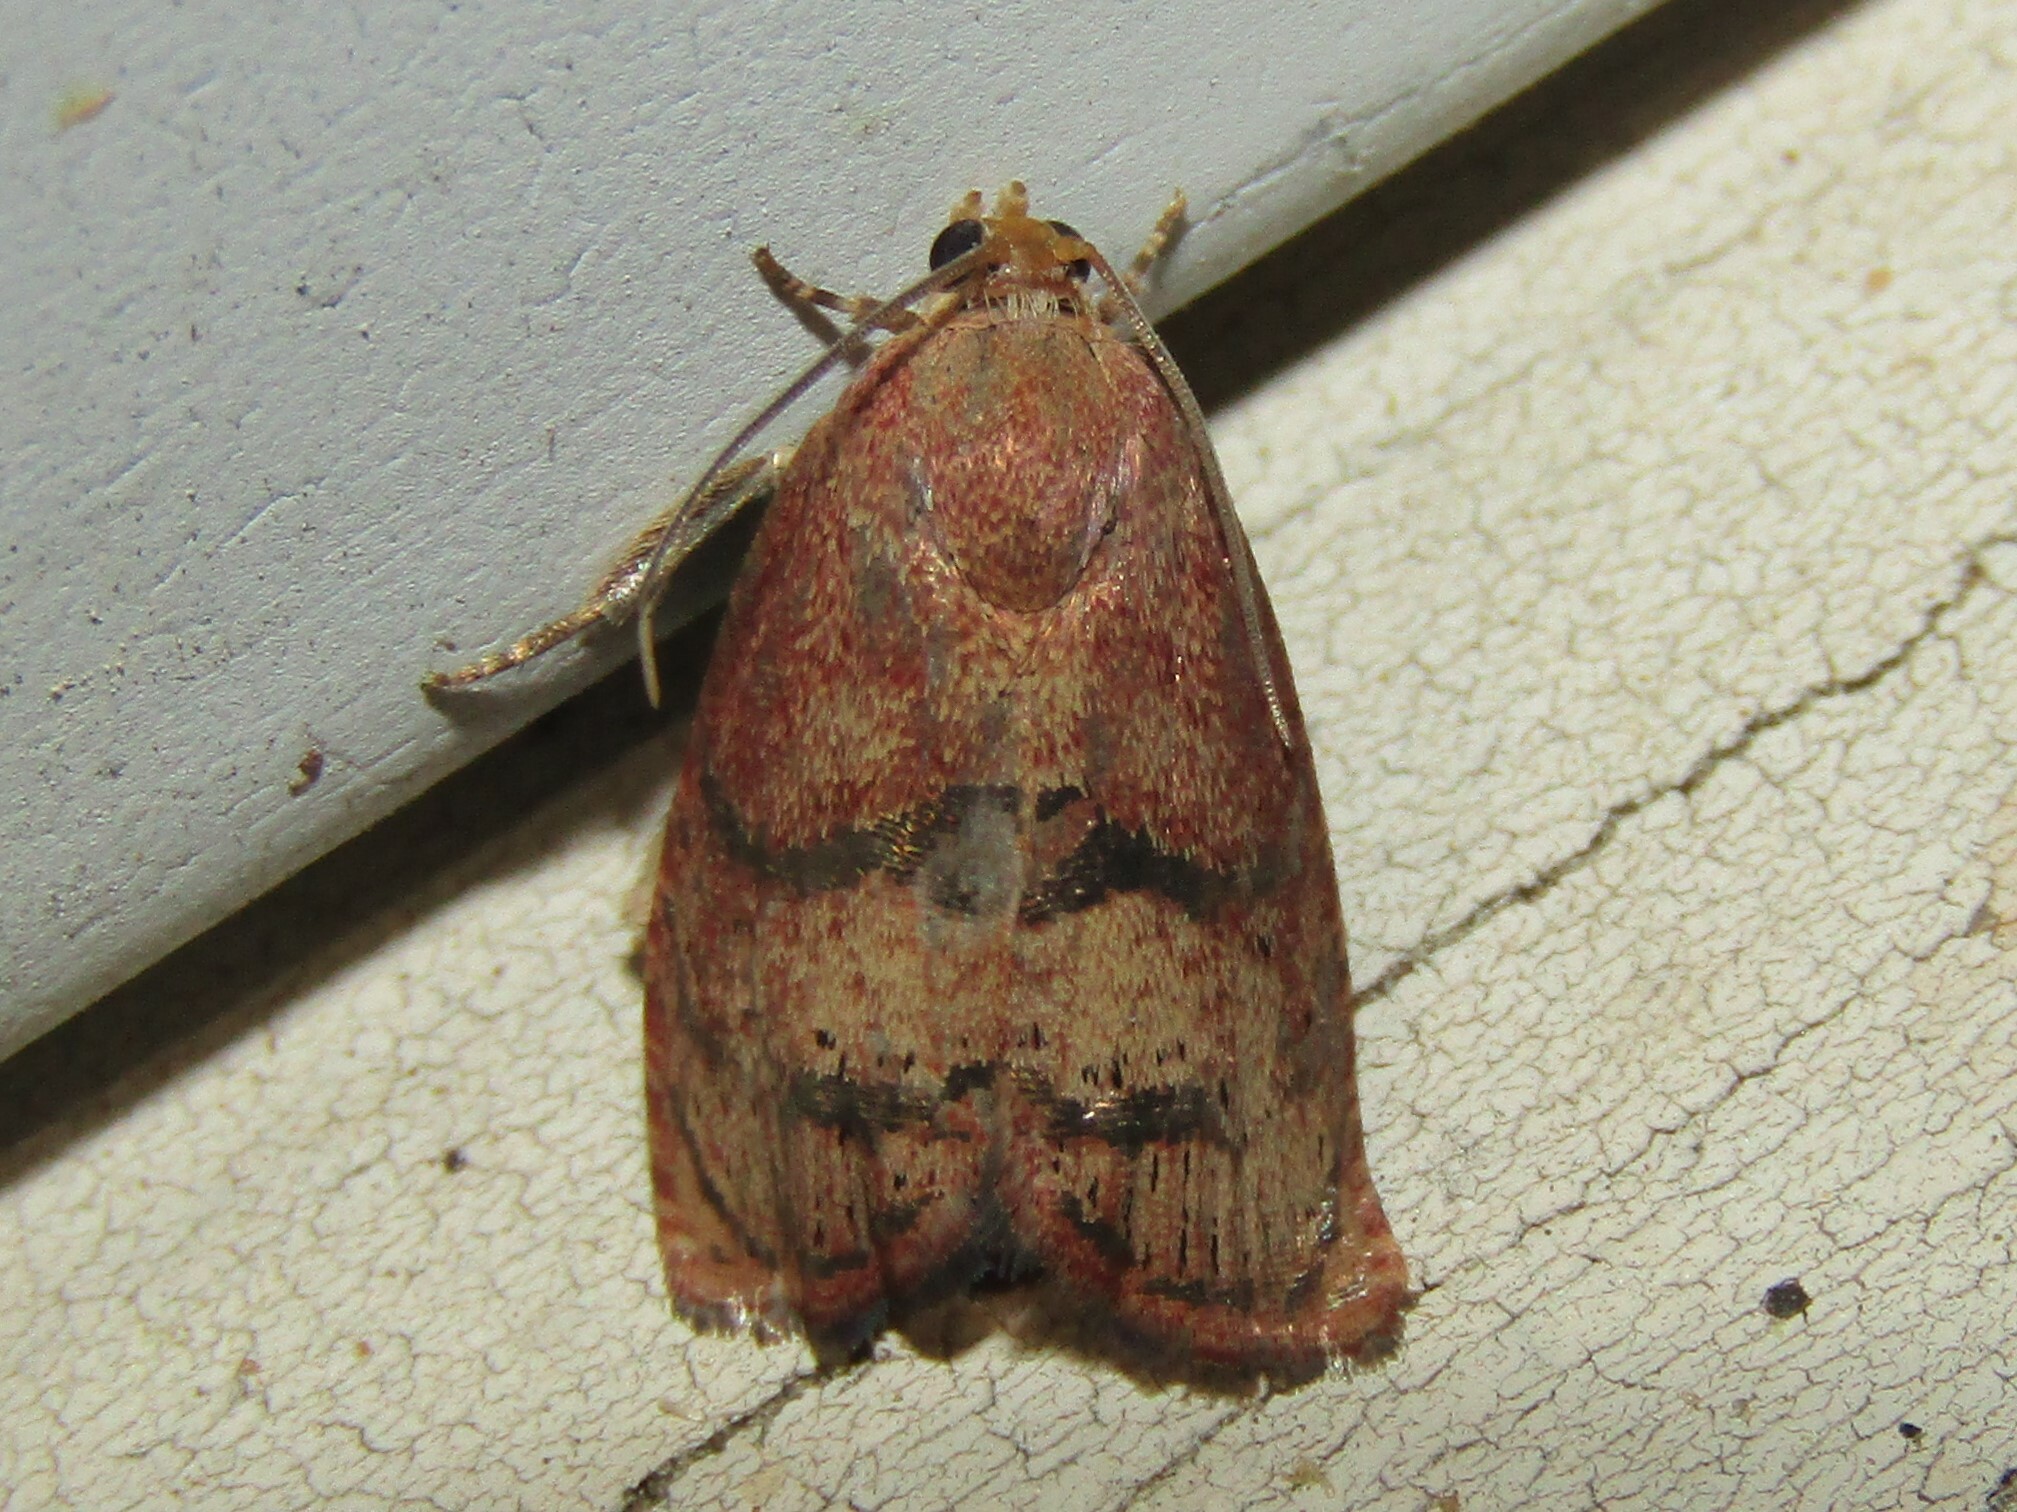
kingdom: Animalia
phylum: Arthropoda
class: Insecta
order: Lepidoptera
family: Tortricidae
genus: Cydia
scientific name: Cydia latiferreana
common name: Filbertworm moth
